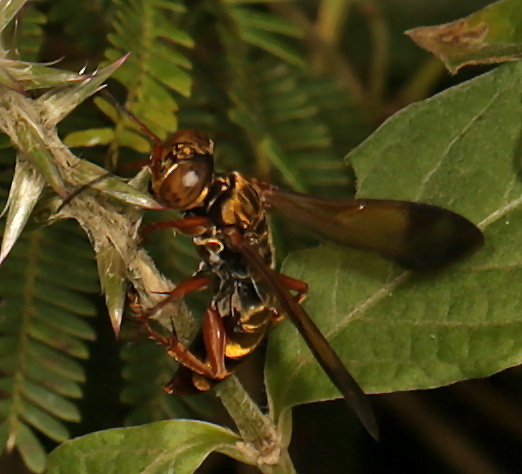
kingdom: Animalia
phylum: Arthropoda
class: Insecta
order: Hymenoptera
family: Crabronidae
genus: Liris
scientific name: Liris bembesianus
